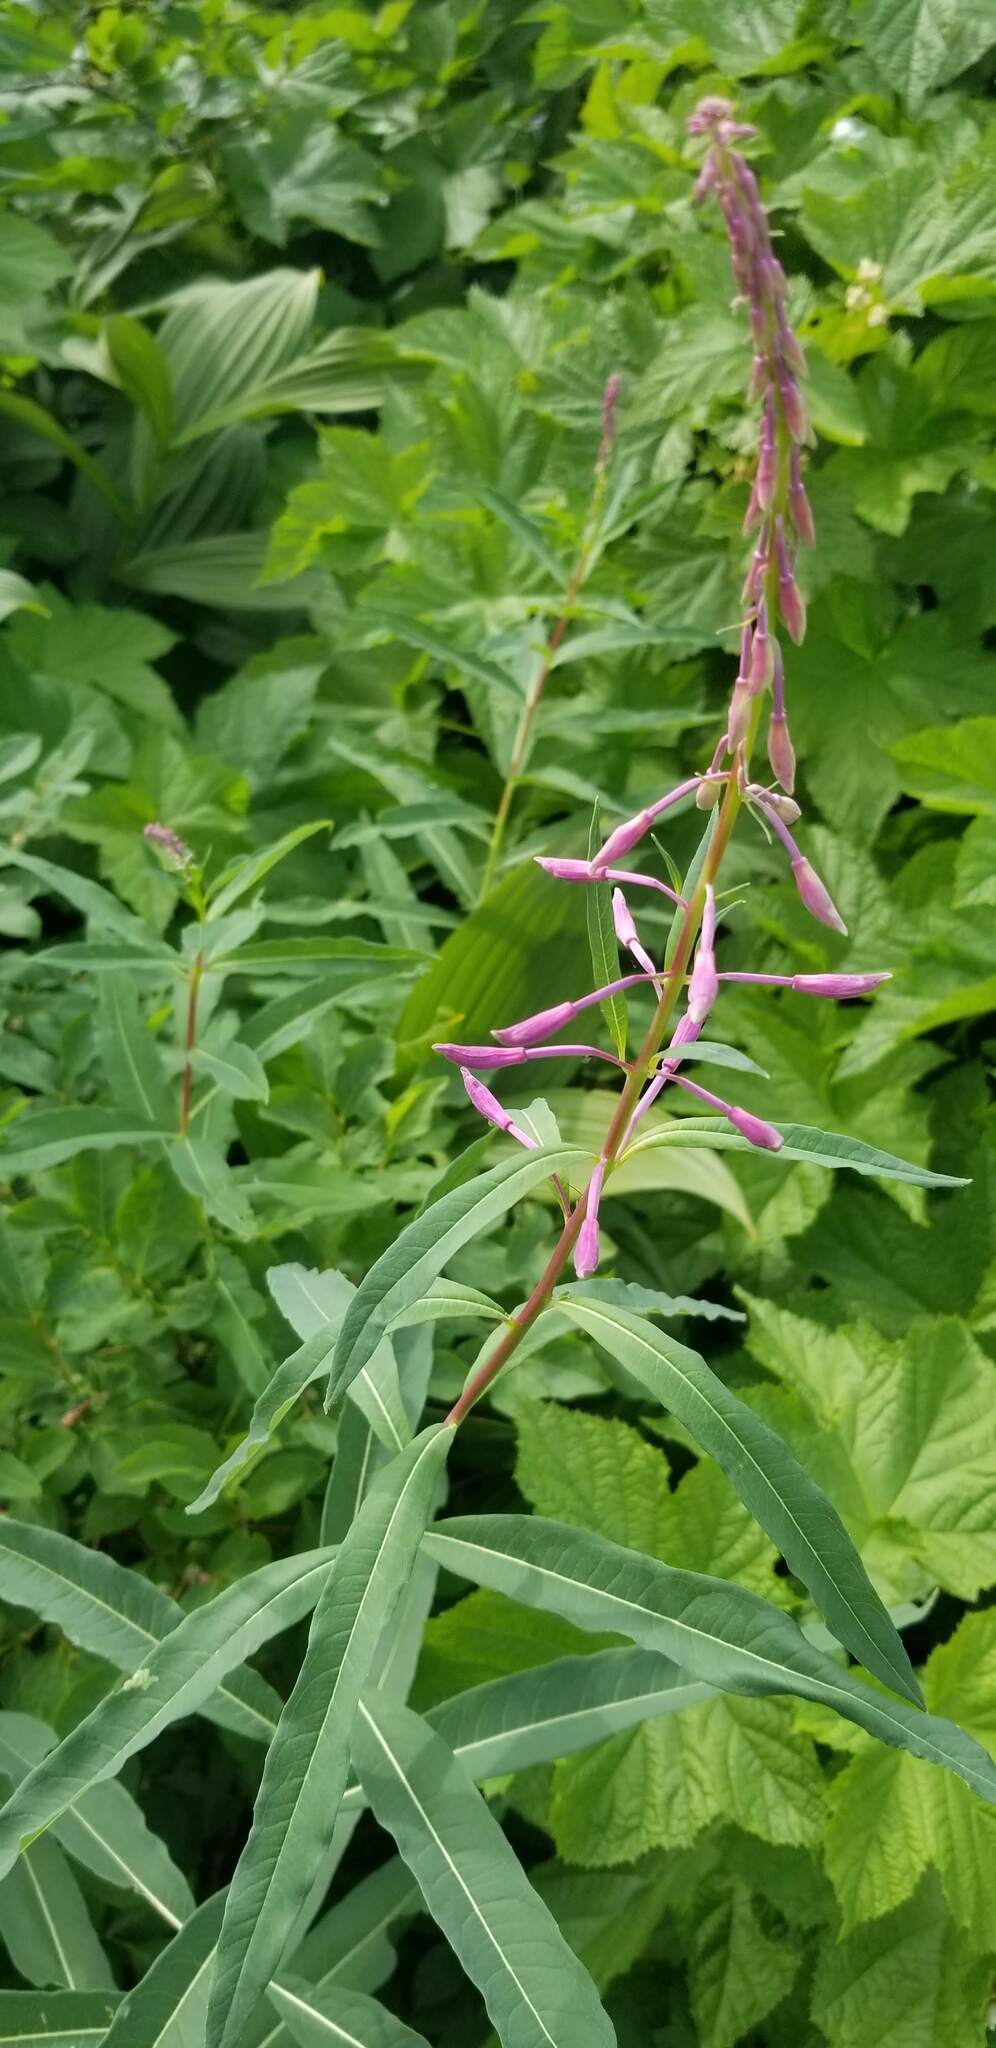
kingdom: Plantae
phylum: Tracheophyta
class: Magnoliopsida
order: Myrtales
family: Onagraceae
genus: Chamaenerion
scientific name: Chamaenerion angustifolium
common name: Fireweed
